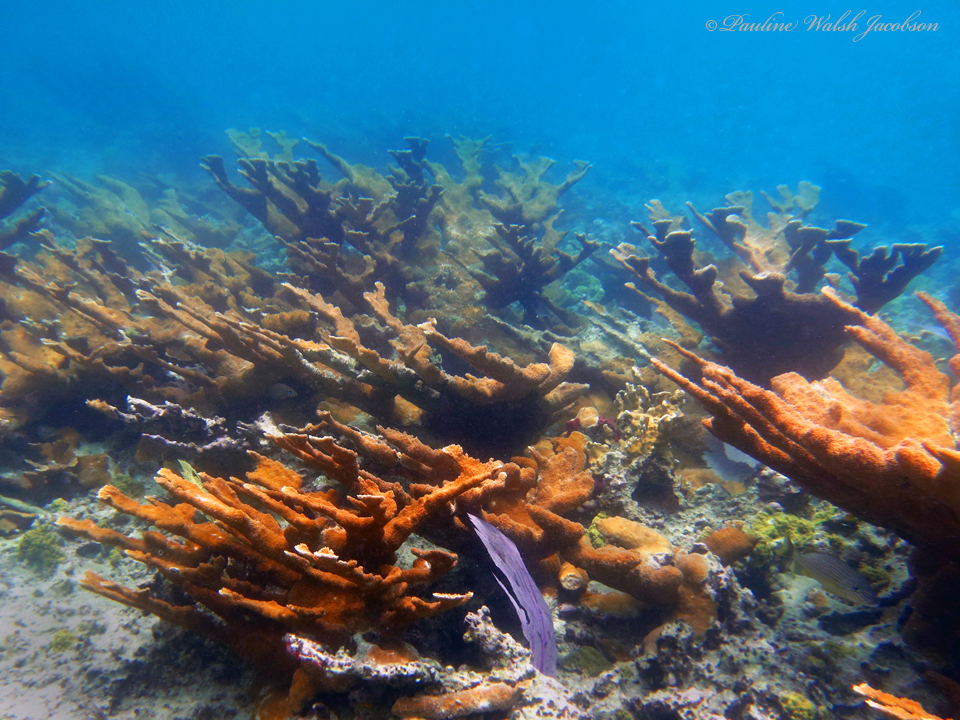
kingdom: Animalia
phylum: Cnidaria
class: Anthozoa
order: Scleractinia
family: Acroporidae
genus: Acropora
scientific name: Acropora palmata
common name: Elkhorn coral
